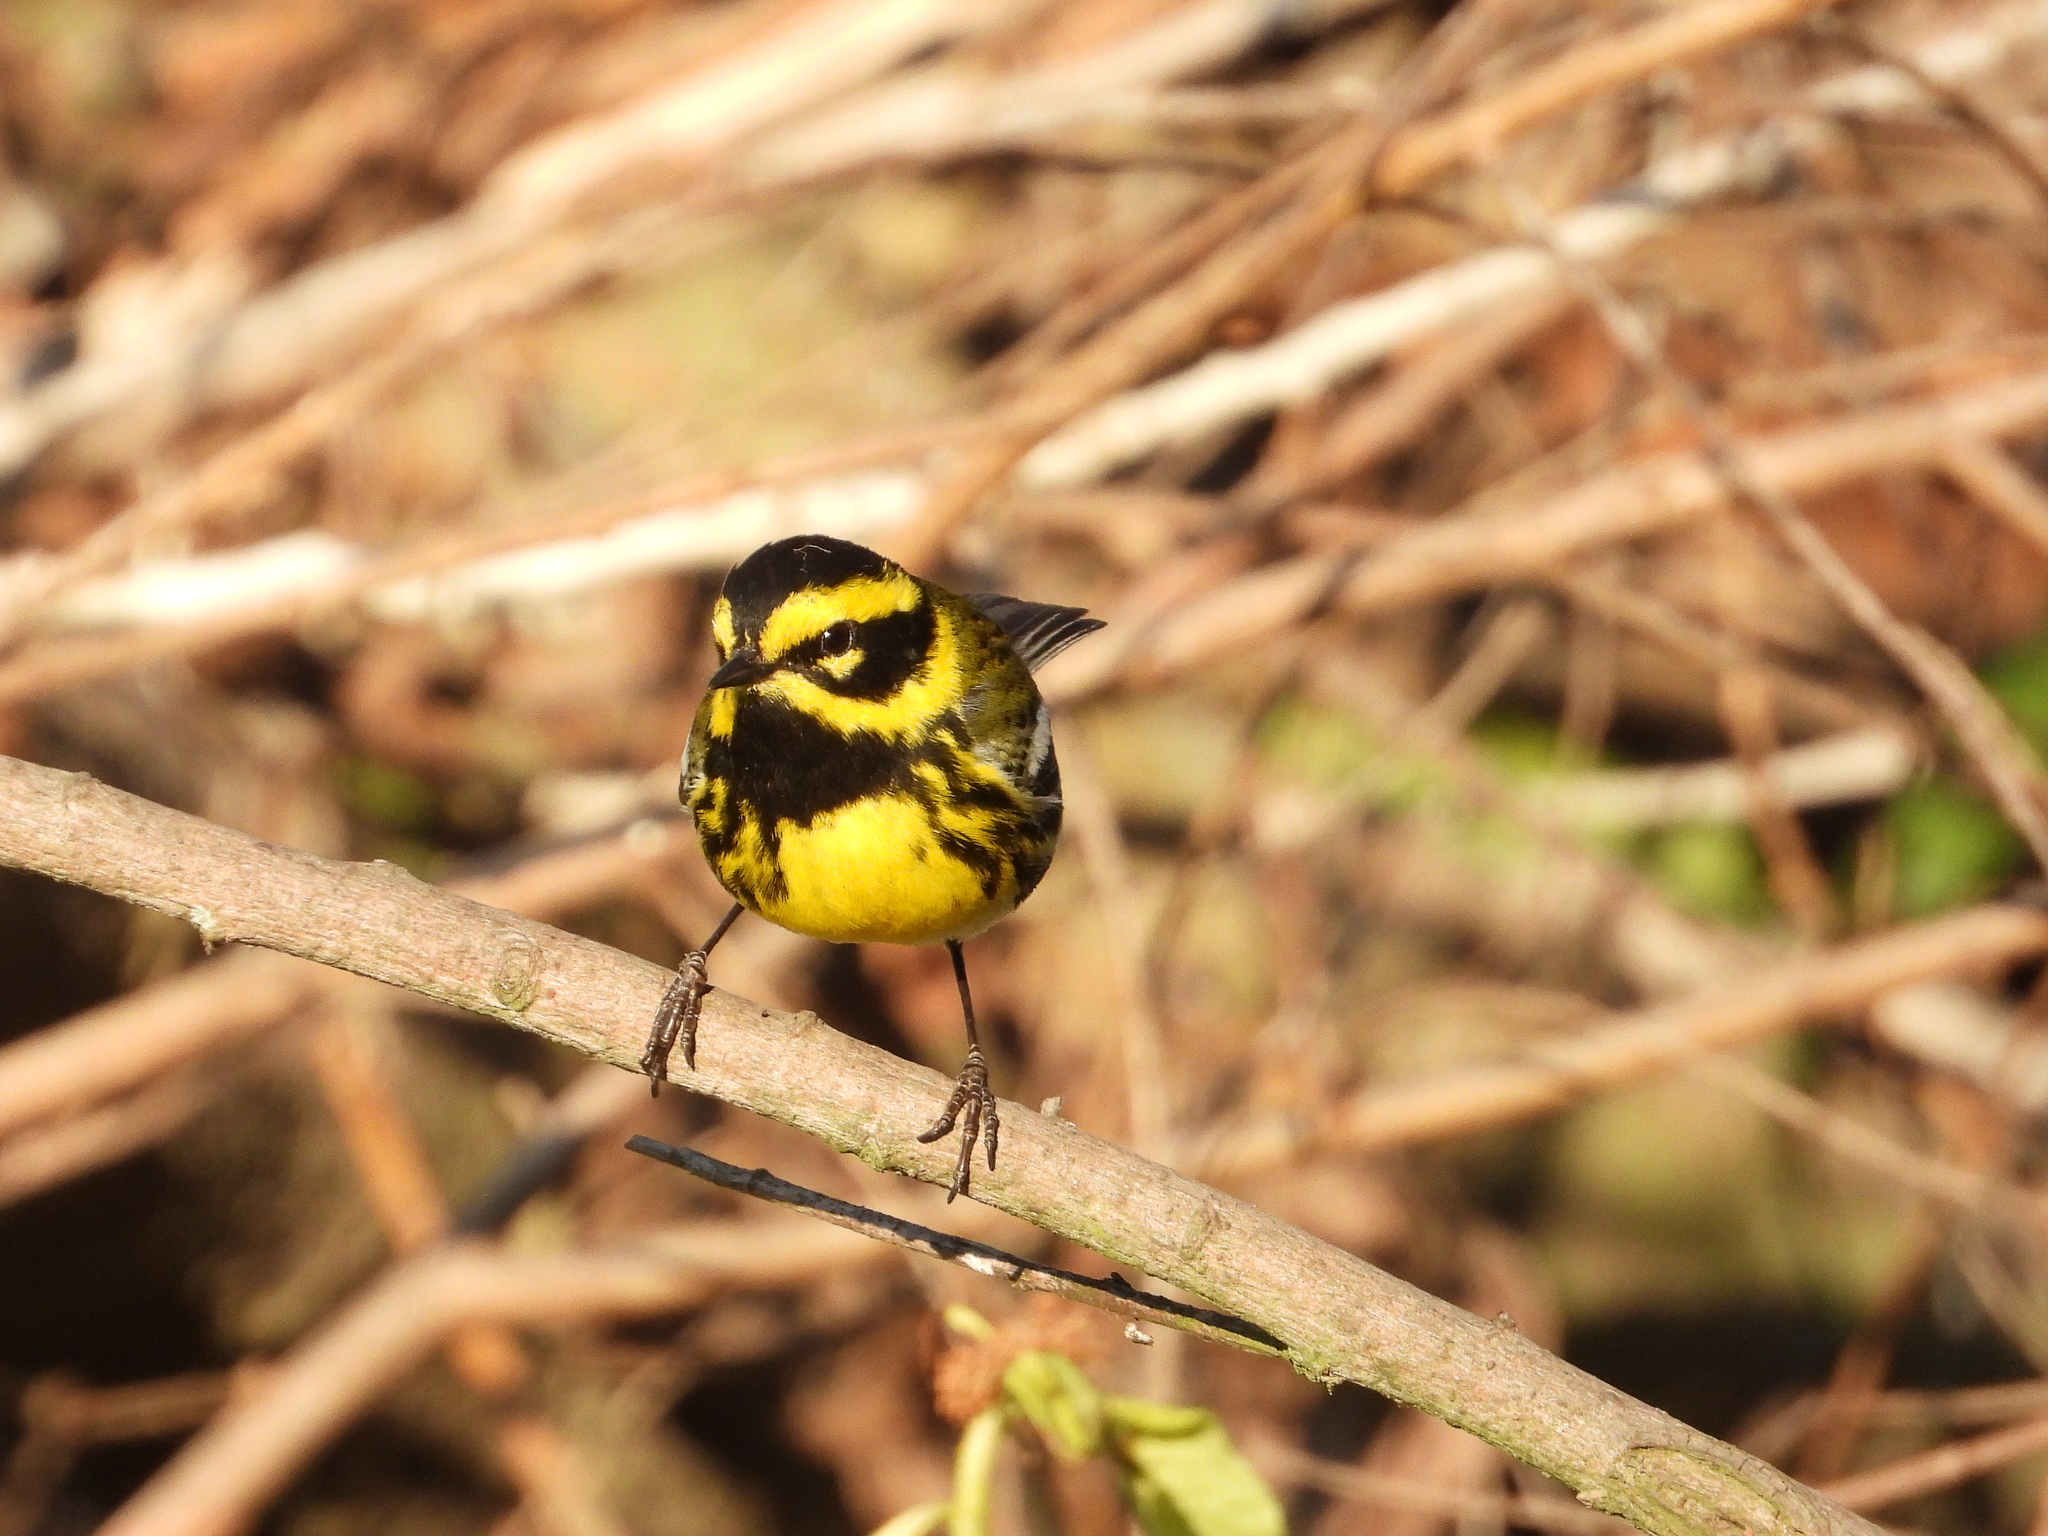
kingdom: Animalia
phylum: Chordata
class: Aves
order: Passeriformes
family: Parulidae
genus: Setophaga
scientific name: Setophaga townsendi
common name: Townsend's warbler
